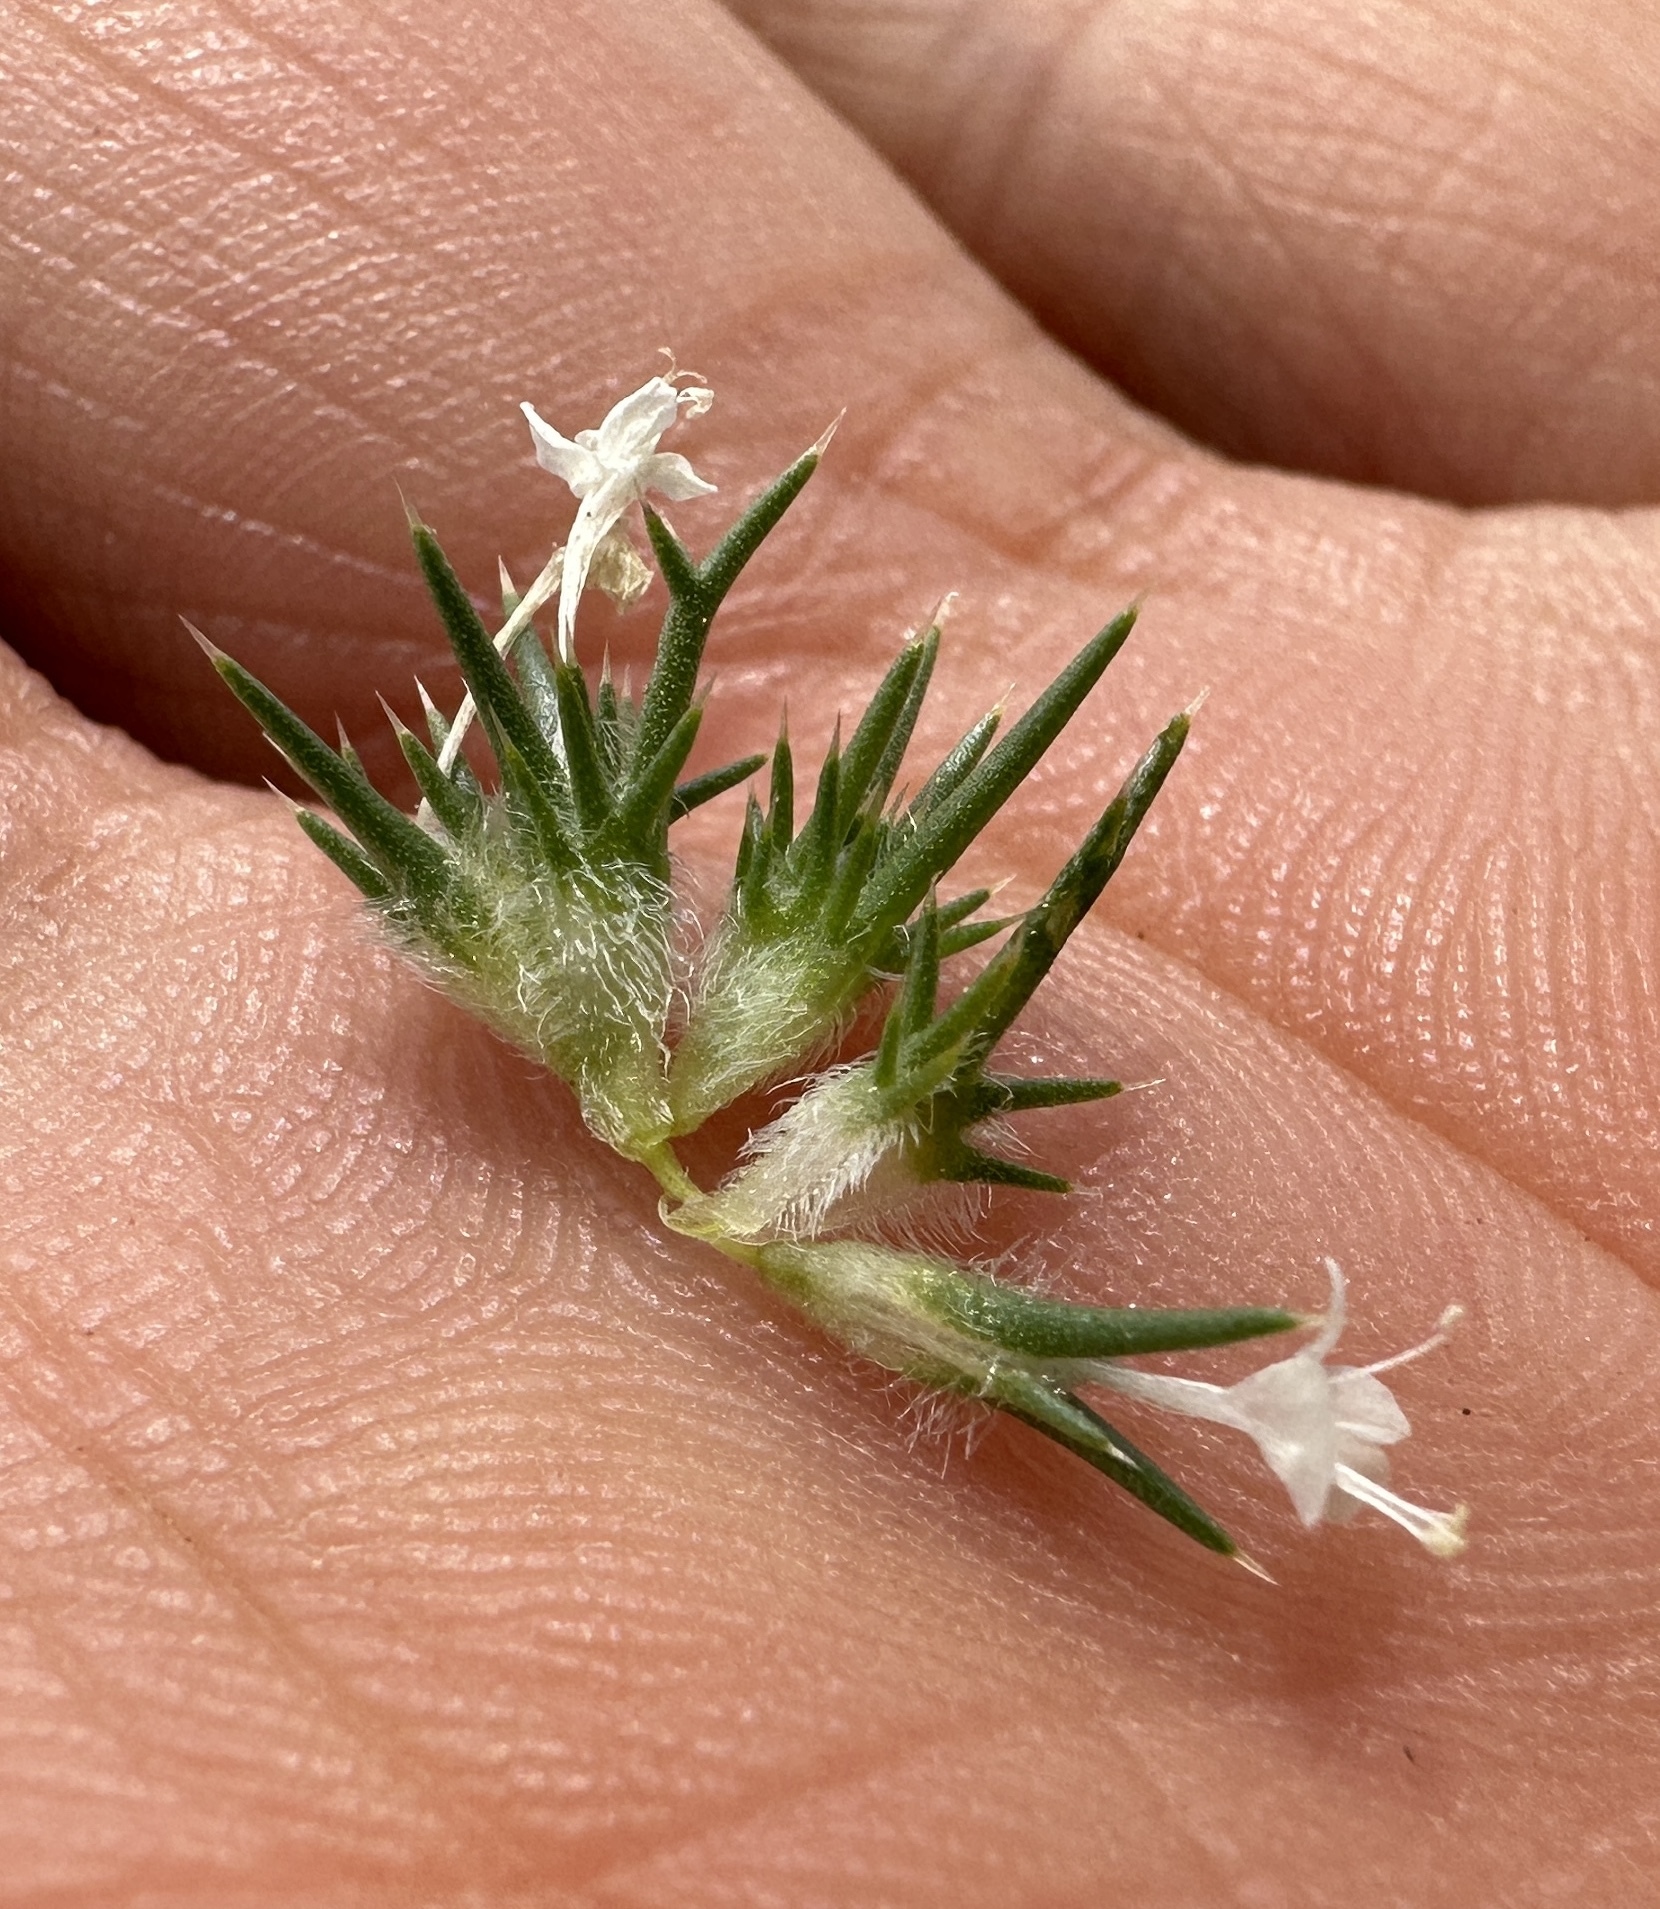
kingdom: Plantae
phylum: Tracheophyta
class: Magnoliopsida
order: Ericales
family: Polemoniaceae
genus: Navarretia
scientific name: Navarretia intertexta
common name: Needle-leaved navarretia
